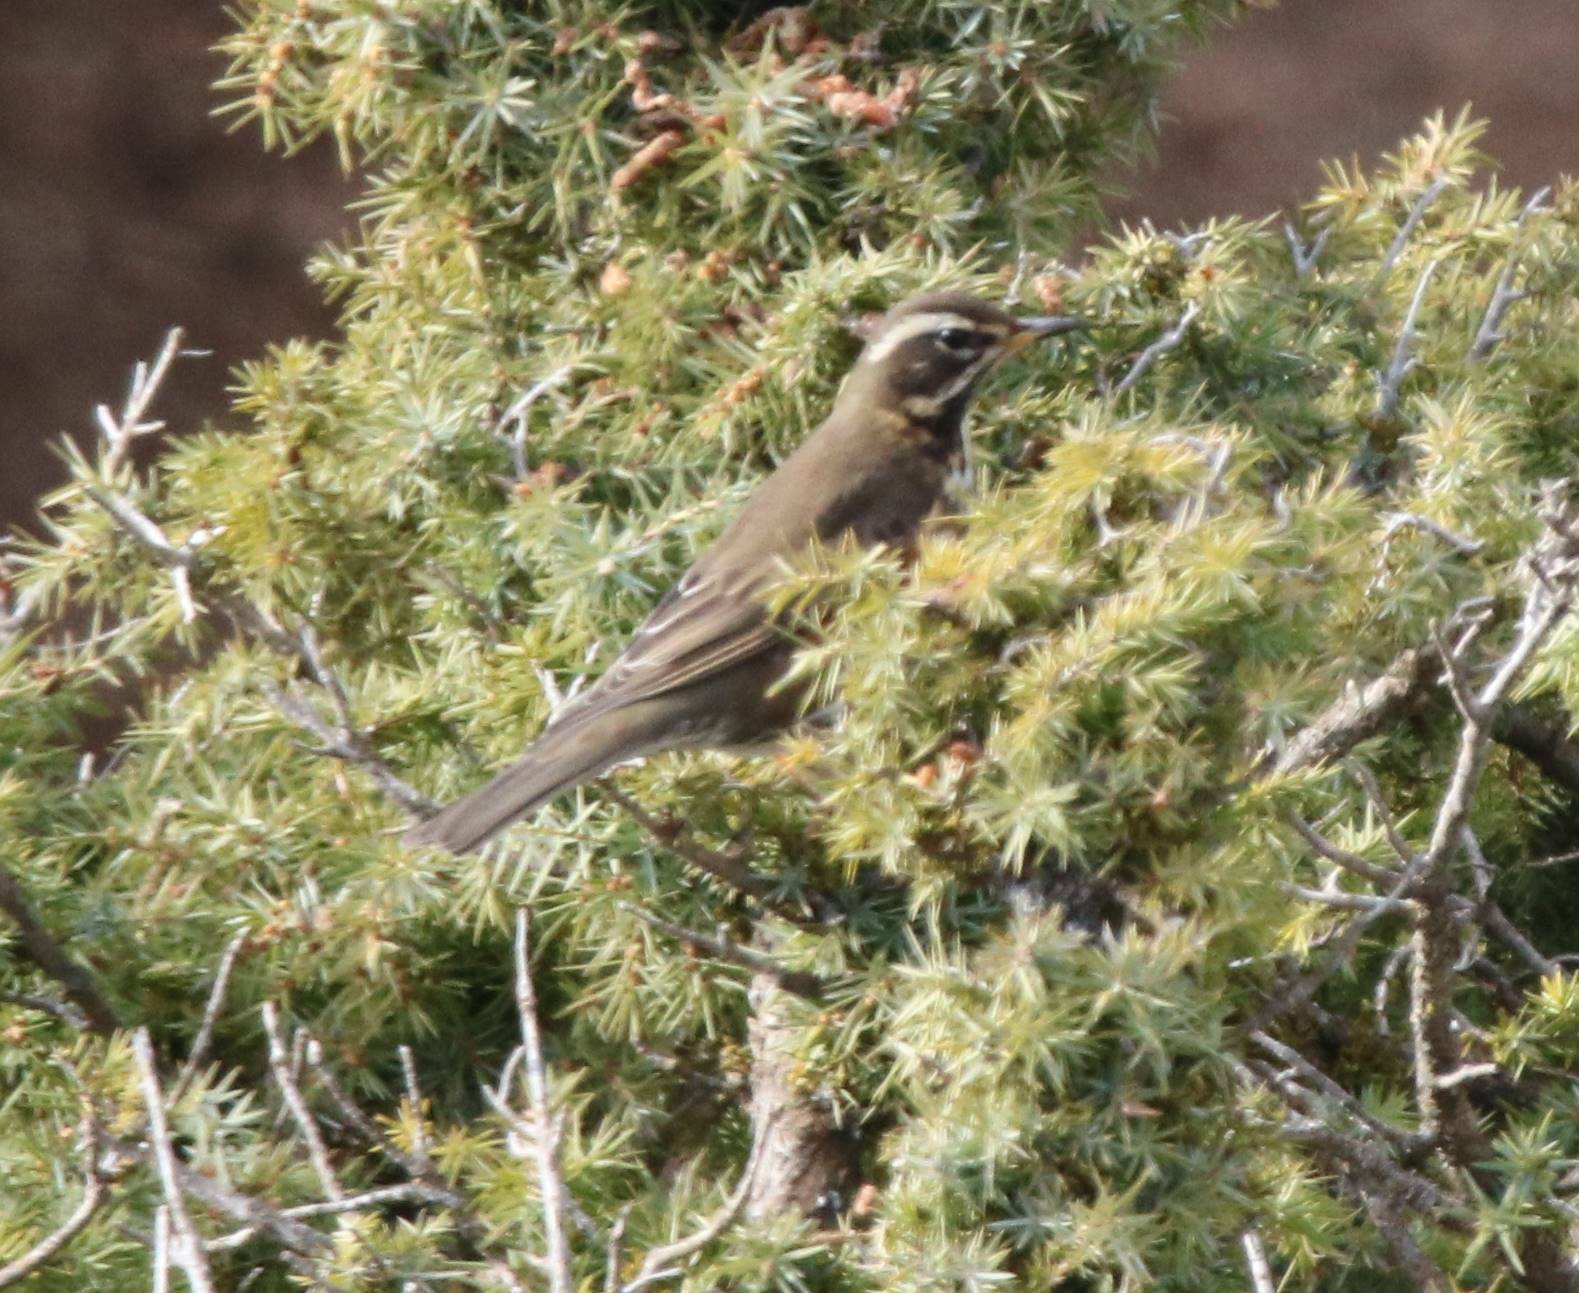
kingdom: Animalia
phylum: Chordata
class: Aves
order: Passeriformes
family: Turdidae
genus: Turdus
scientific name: Turdus iliacus
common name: Redwing
